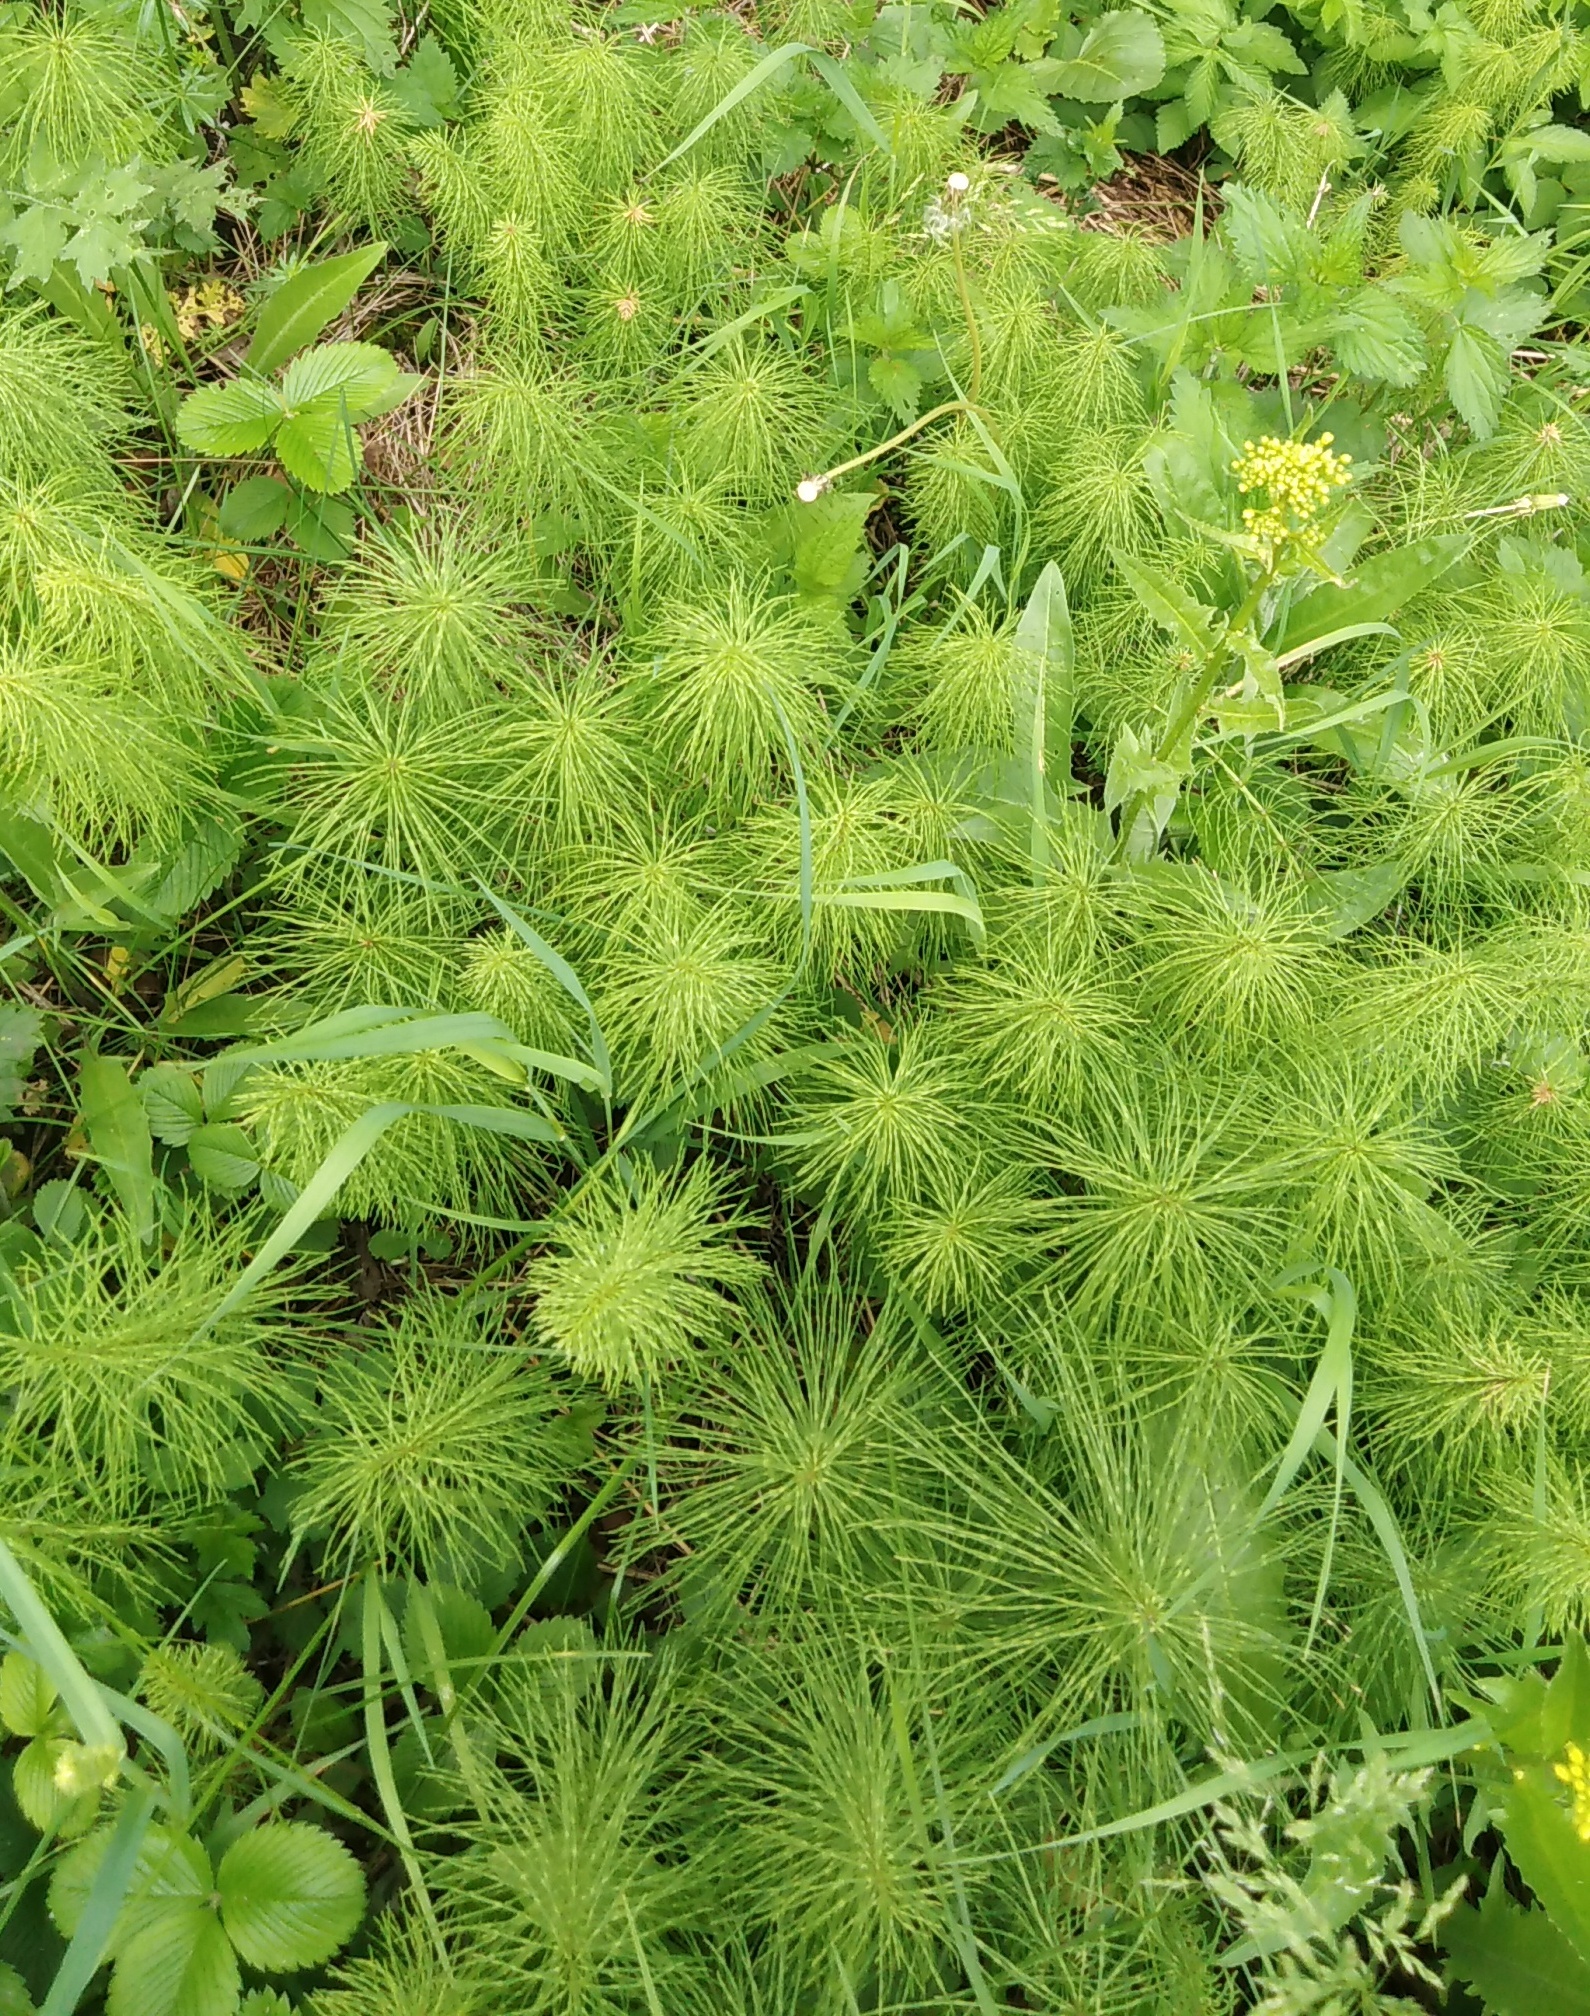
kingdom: Plantae
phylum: Tracheophyta
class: Polypodiopsida
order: Equisetales
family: Equisetaceae
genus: Equisetum
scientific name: Equisetum pratense
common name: Meadow horsetail
